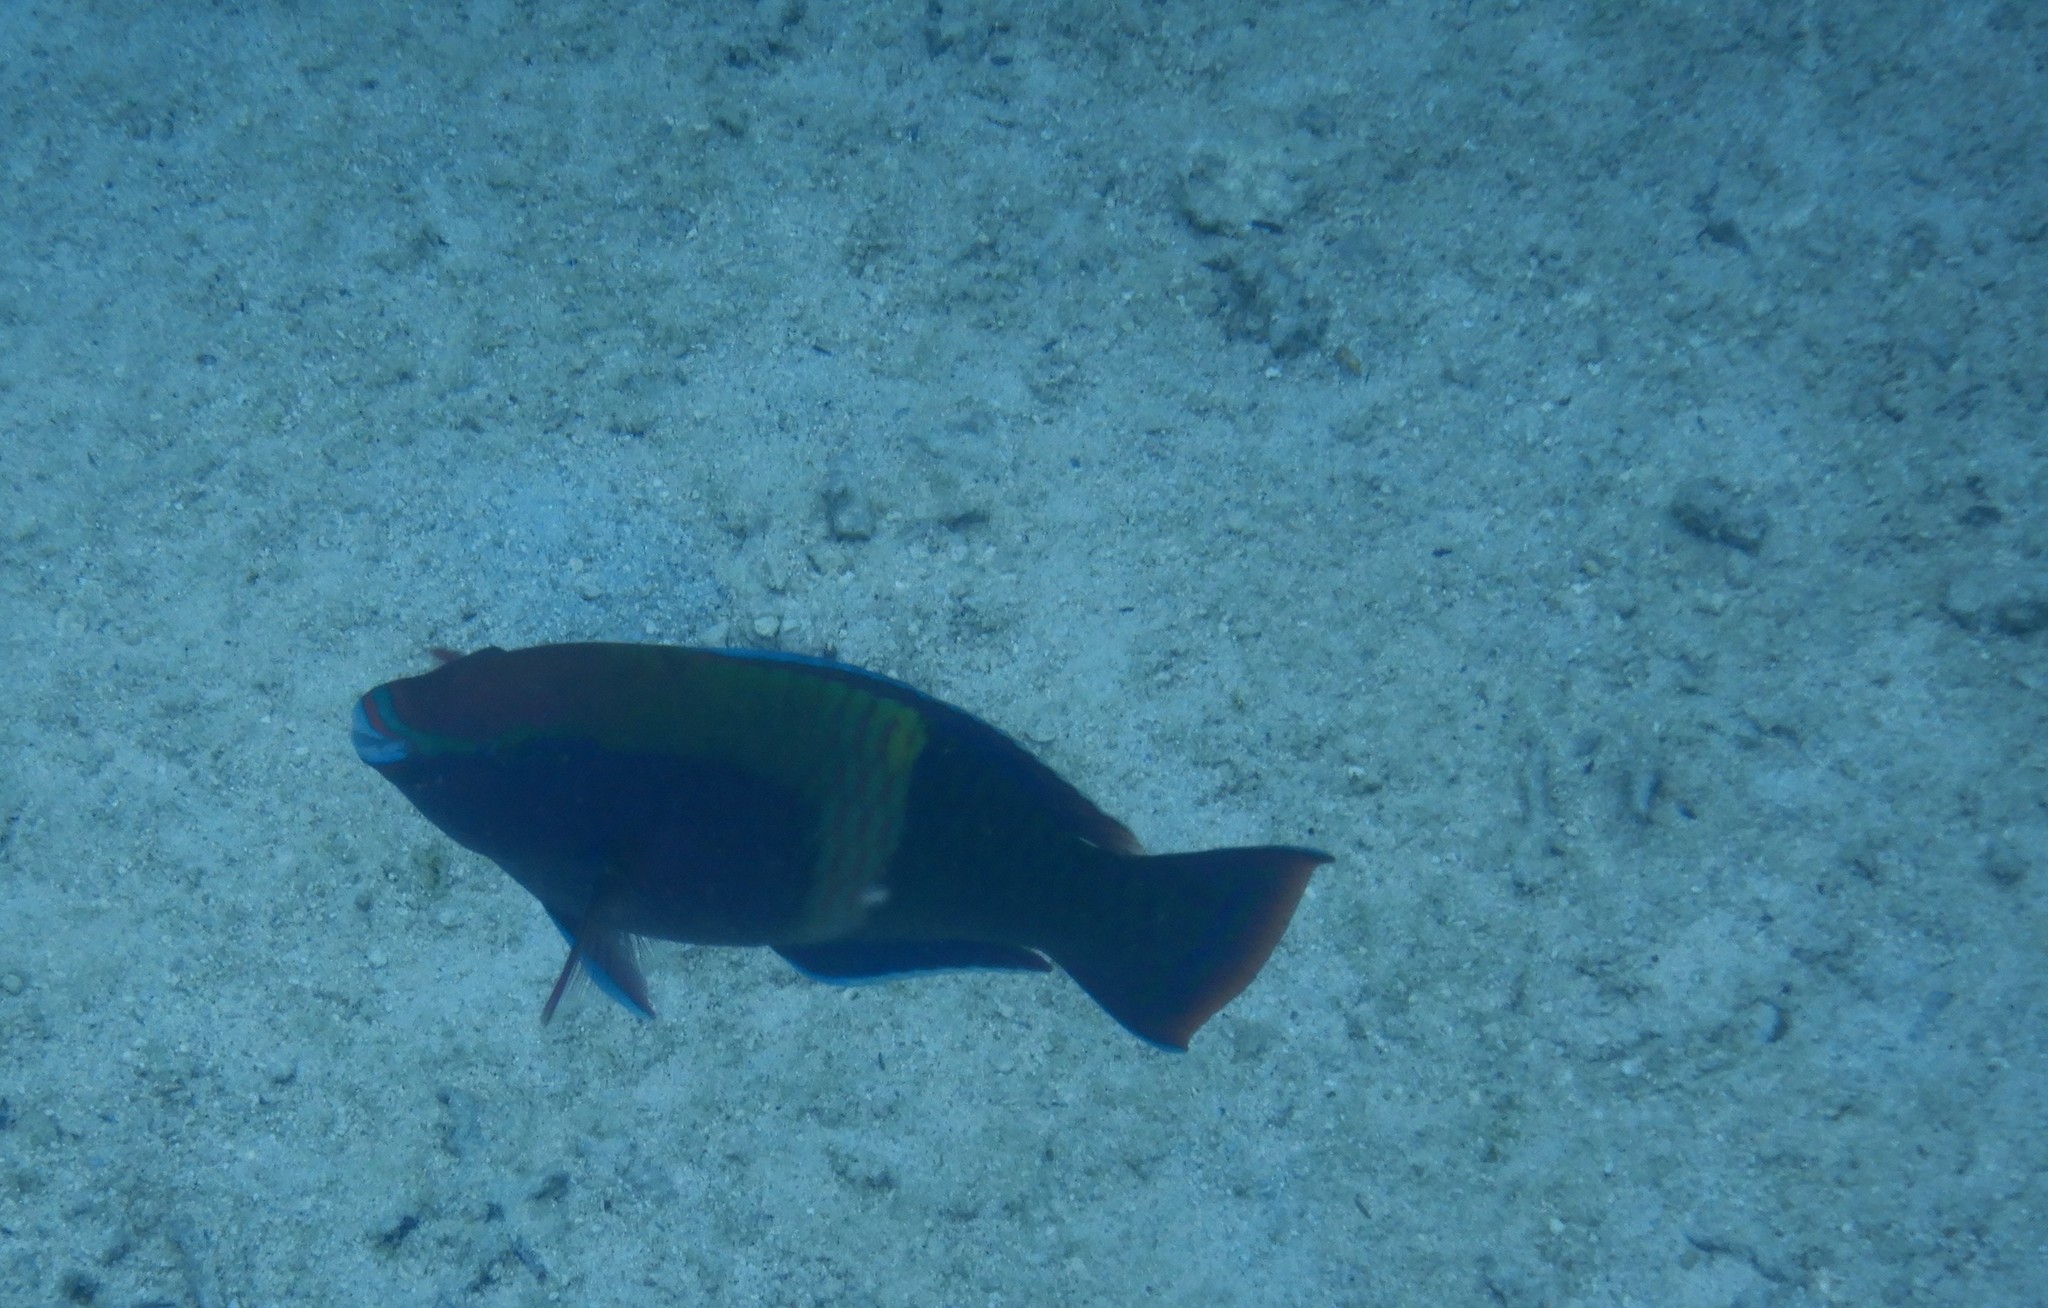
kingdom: Animalia
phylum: Chordata
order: Perciformes
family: Scaridae
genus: Scarus
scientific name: Scarus schlegeli
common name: Schlegel's parrotfish
